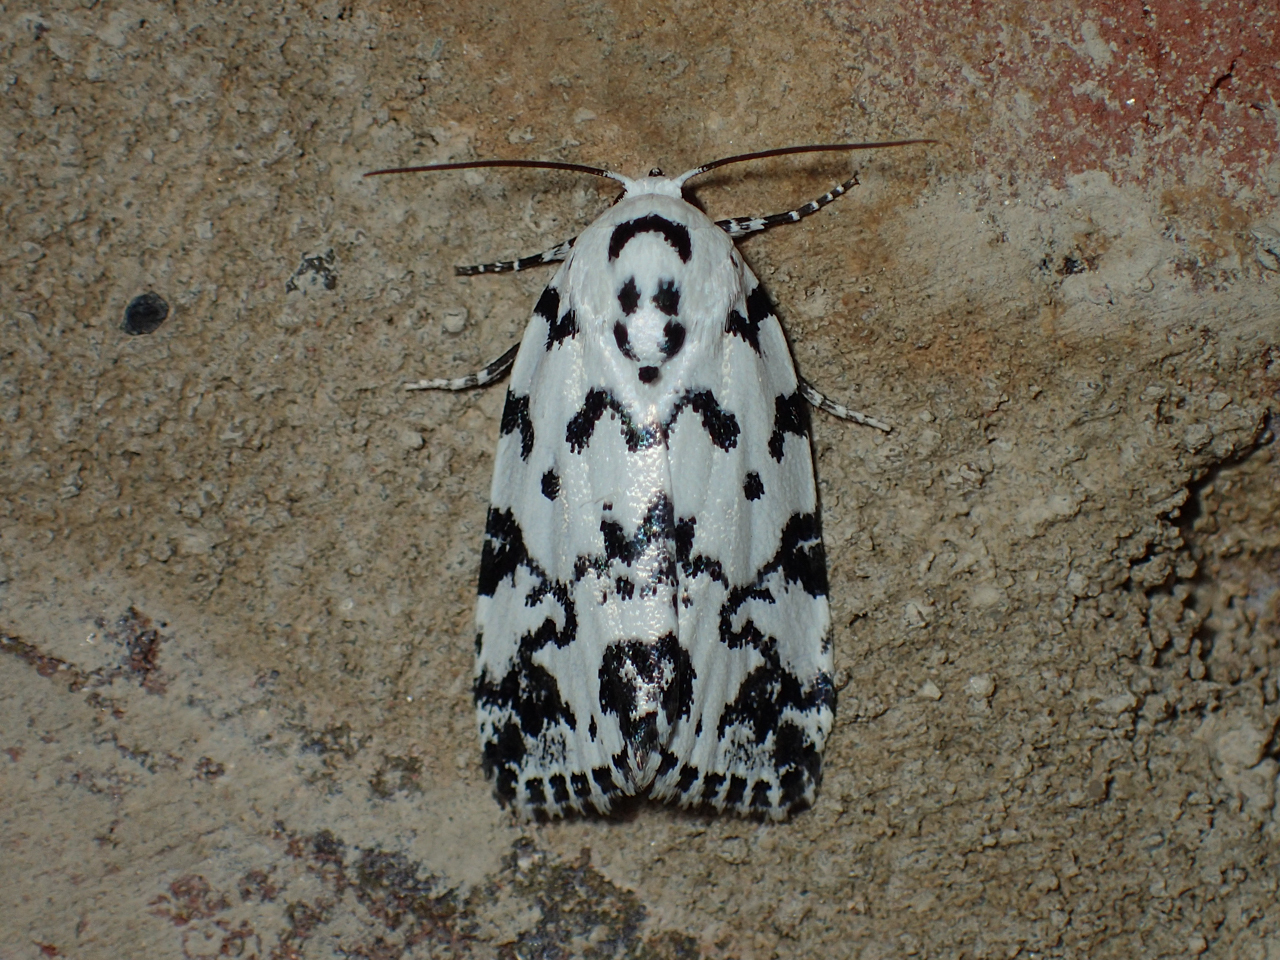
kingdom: Animalia
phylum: Arthropoda
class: Insecta
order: Lepidoptera
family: Noctuidae
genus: Polygrammate
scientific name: Polygrammate hebraeicum
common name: Hebrew moth
